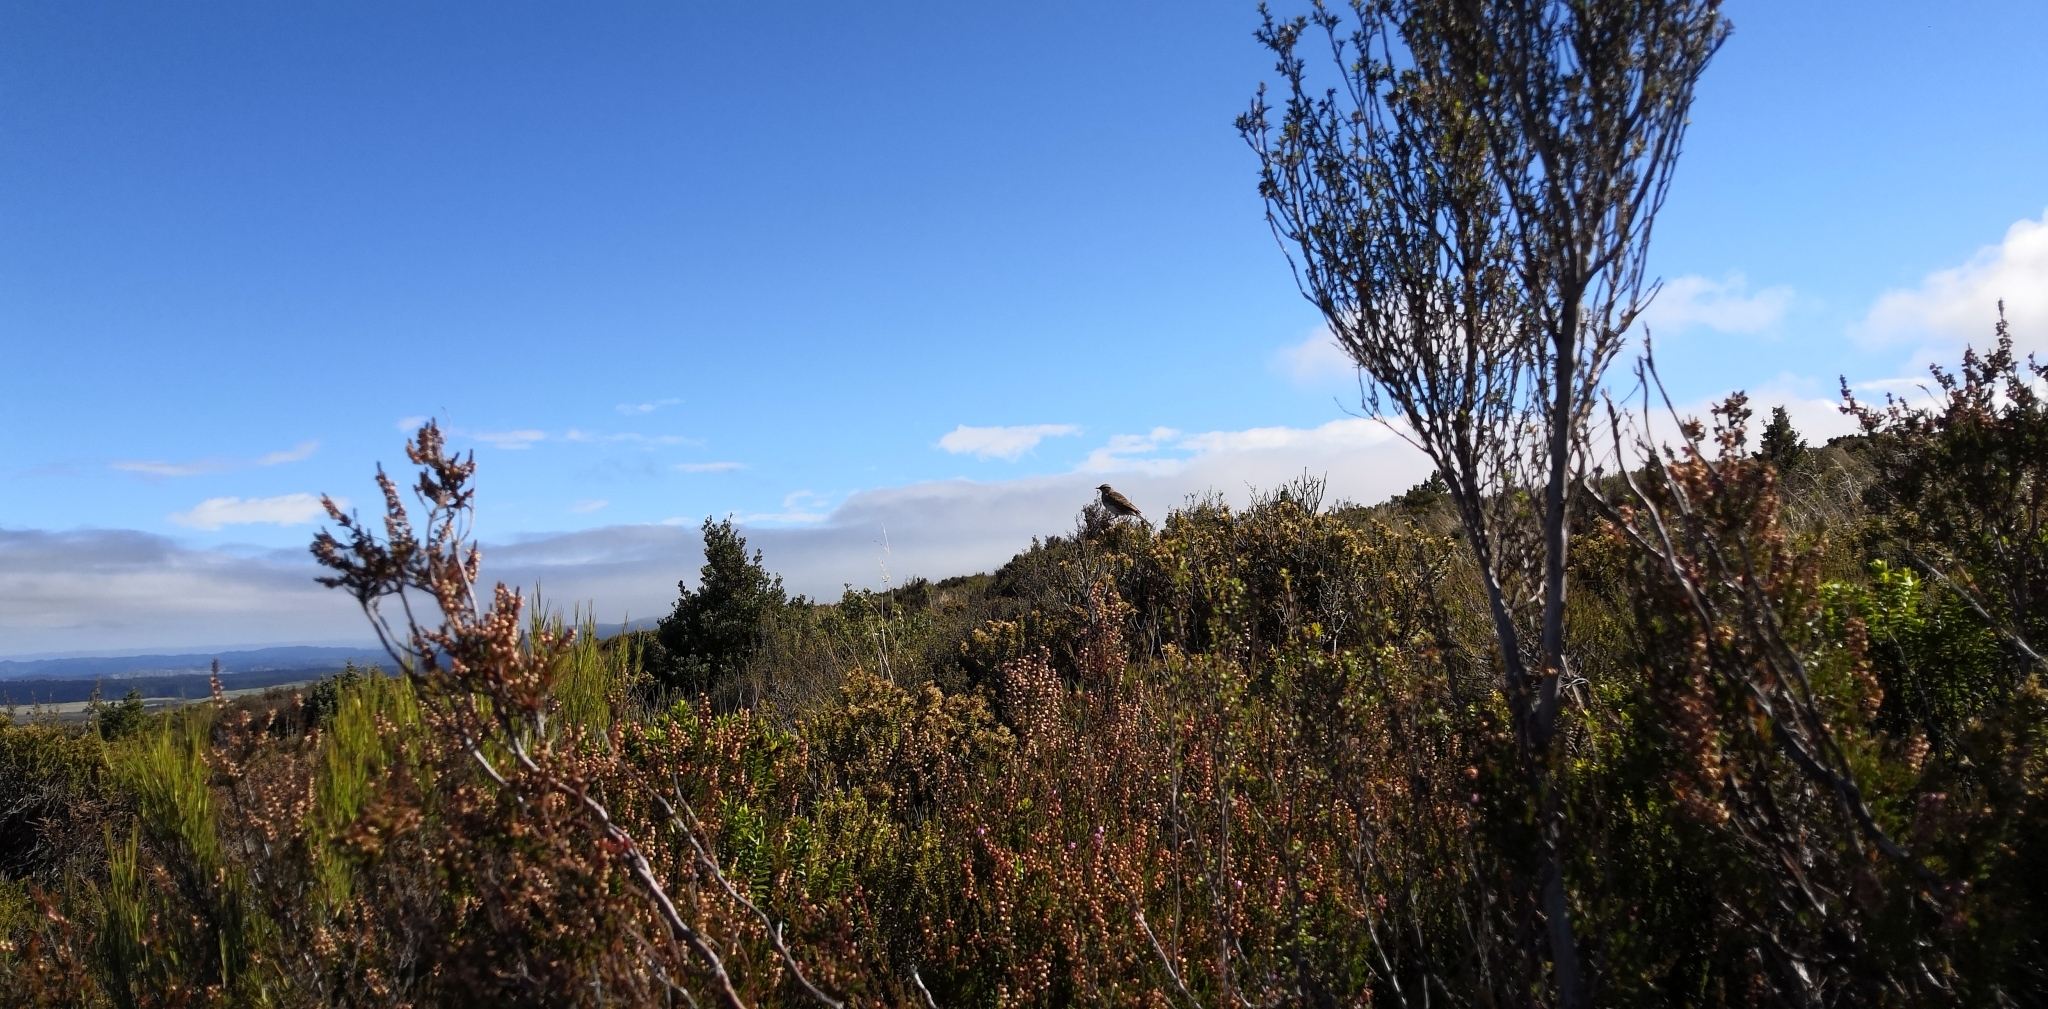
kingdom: Animalia
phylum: Chordata
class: Aves
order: Passeriformes
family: Motacillidae
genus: Anthus
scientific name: Anthus novaeseelandiae
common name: New zealand pipit
